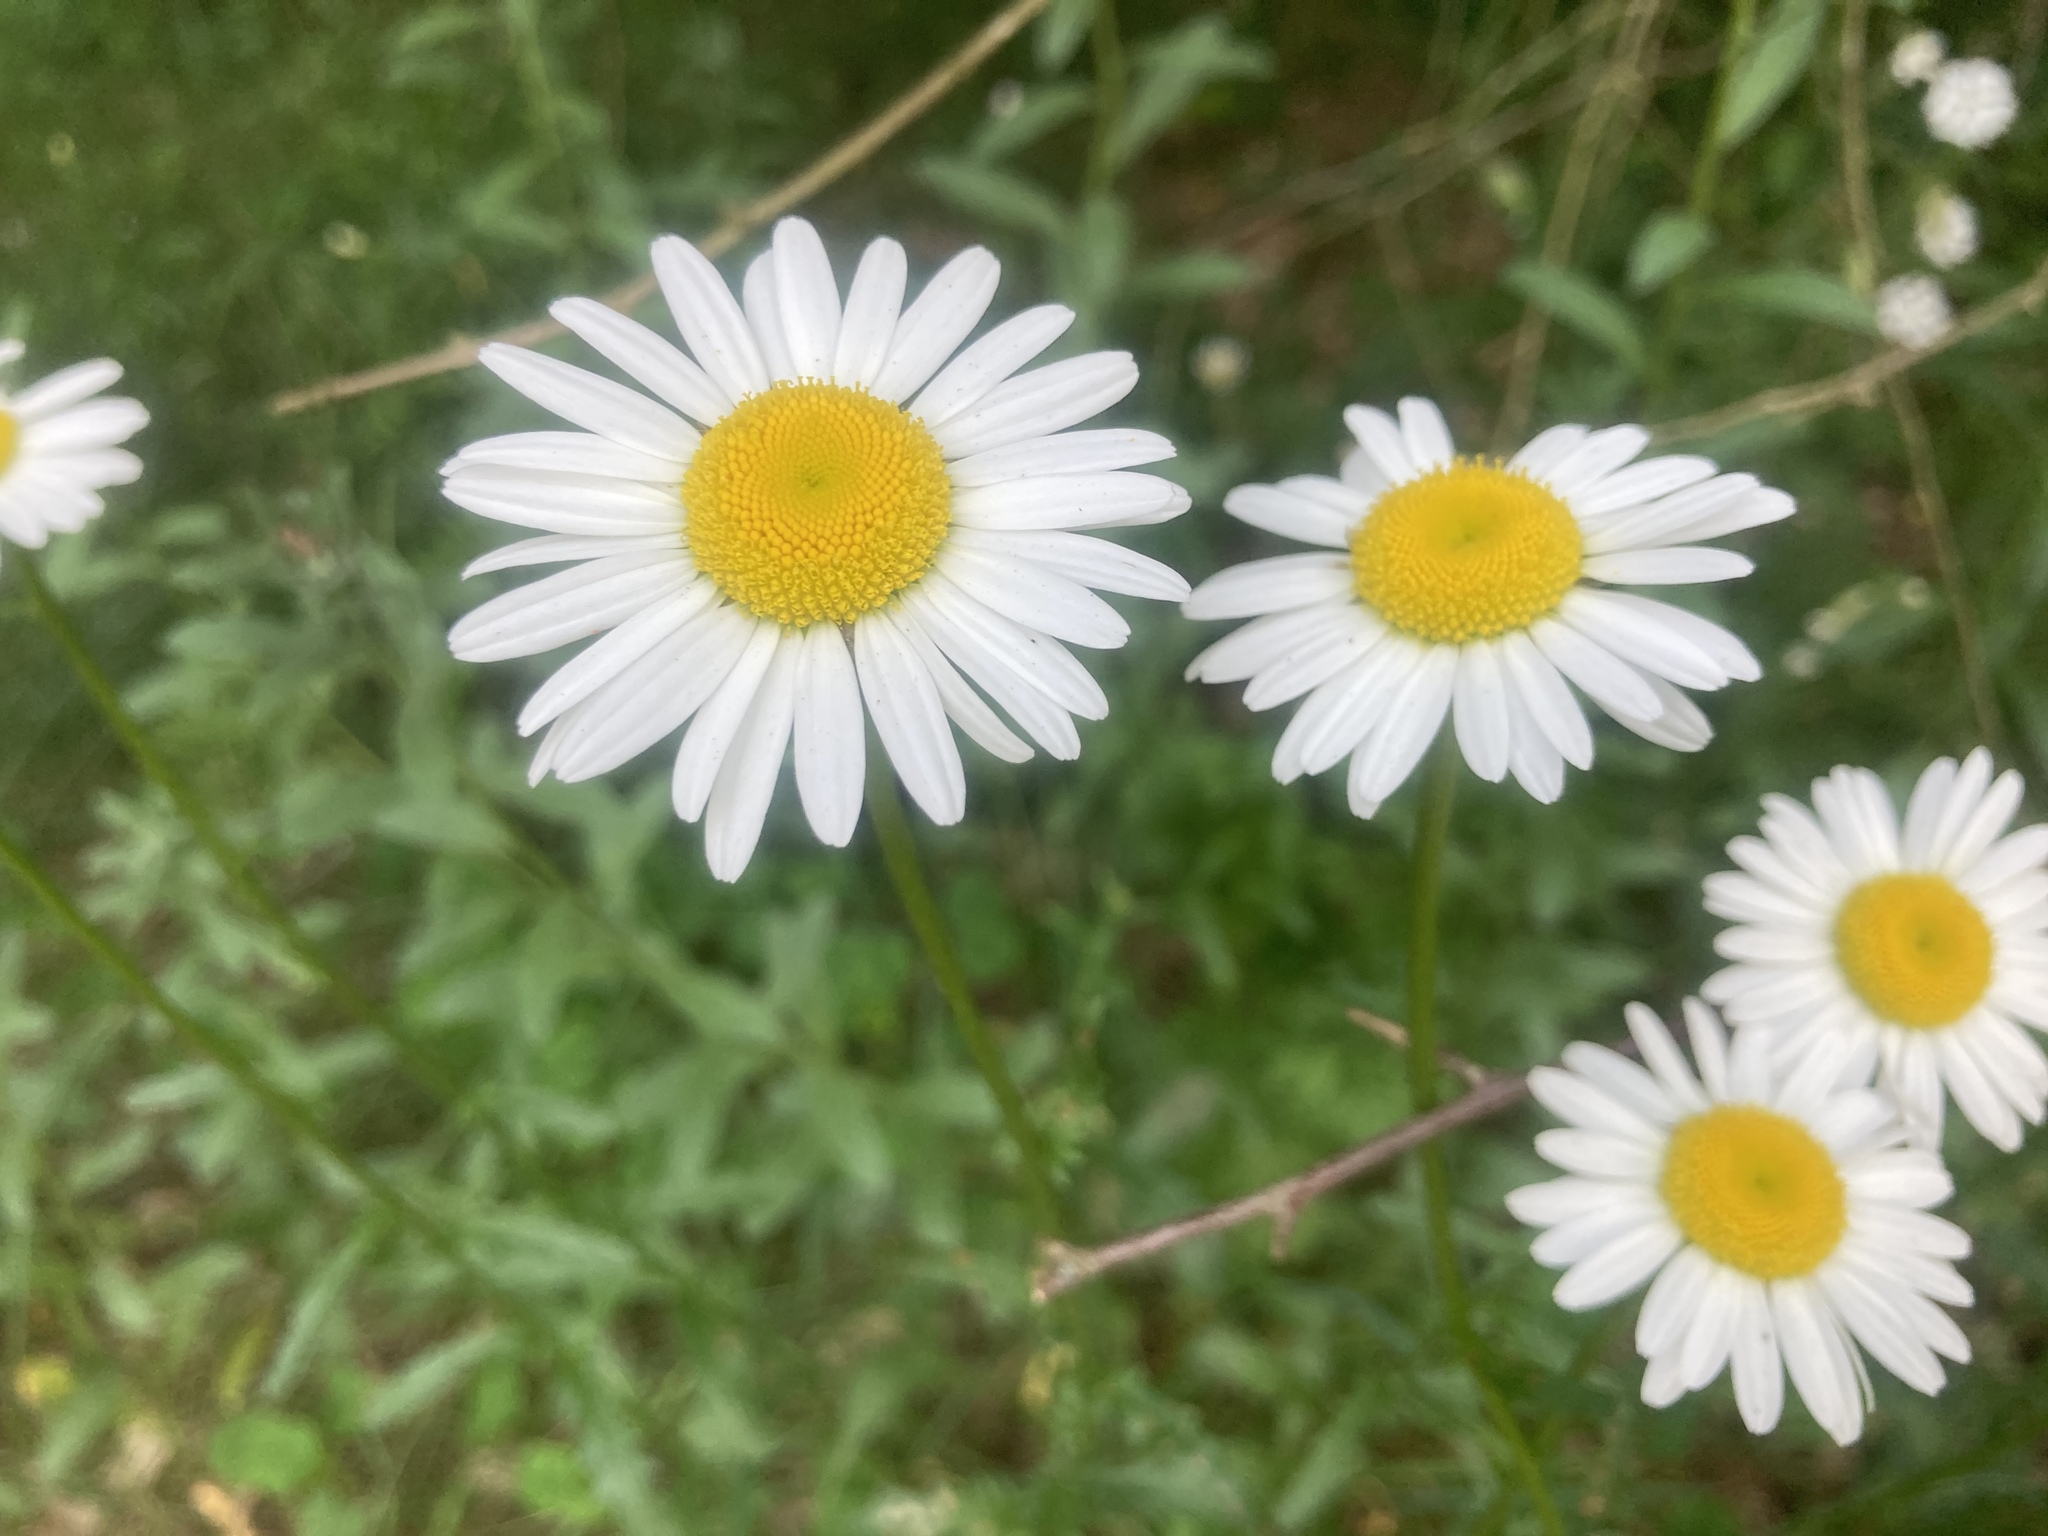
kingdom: Plantae
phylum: Tracheophyta
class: Magnoliopsida
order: Asterales
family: Asteraceae
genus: Leucanthemum
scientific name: Leucanthemum vulgare
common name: Oxeye daisy
